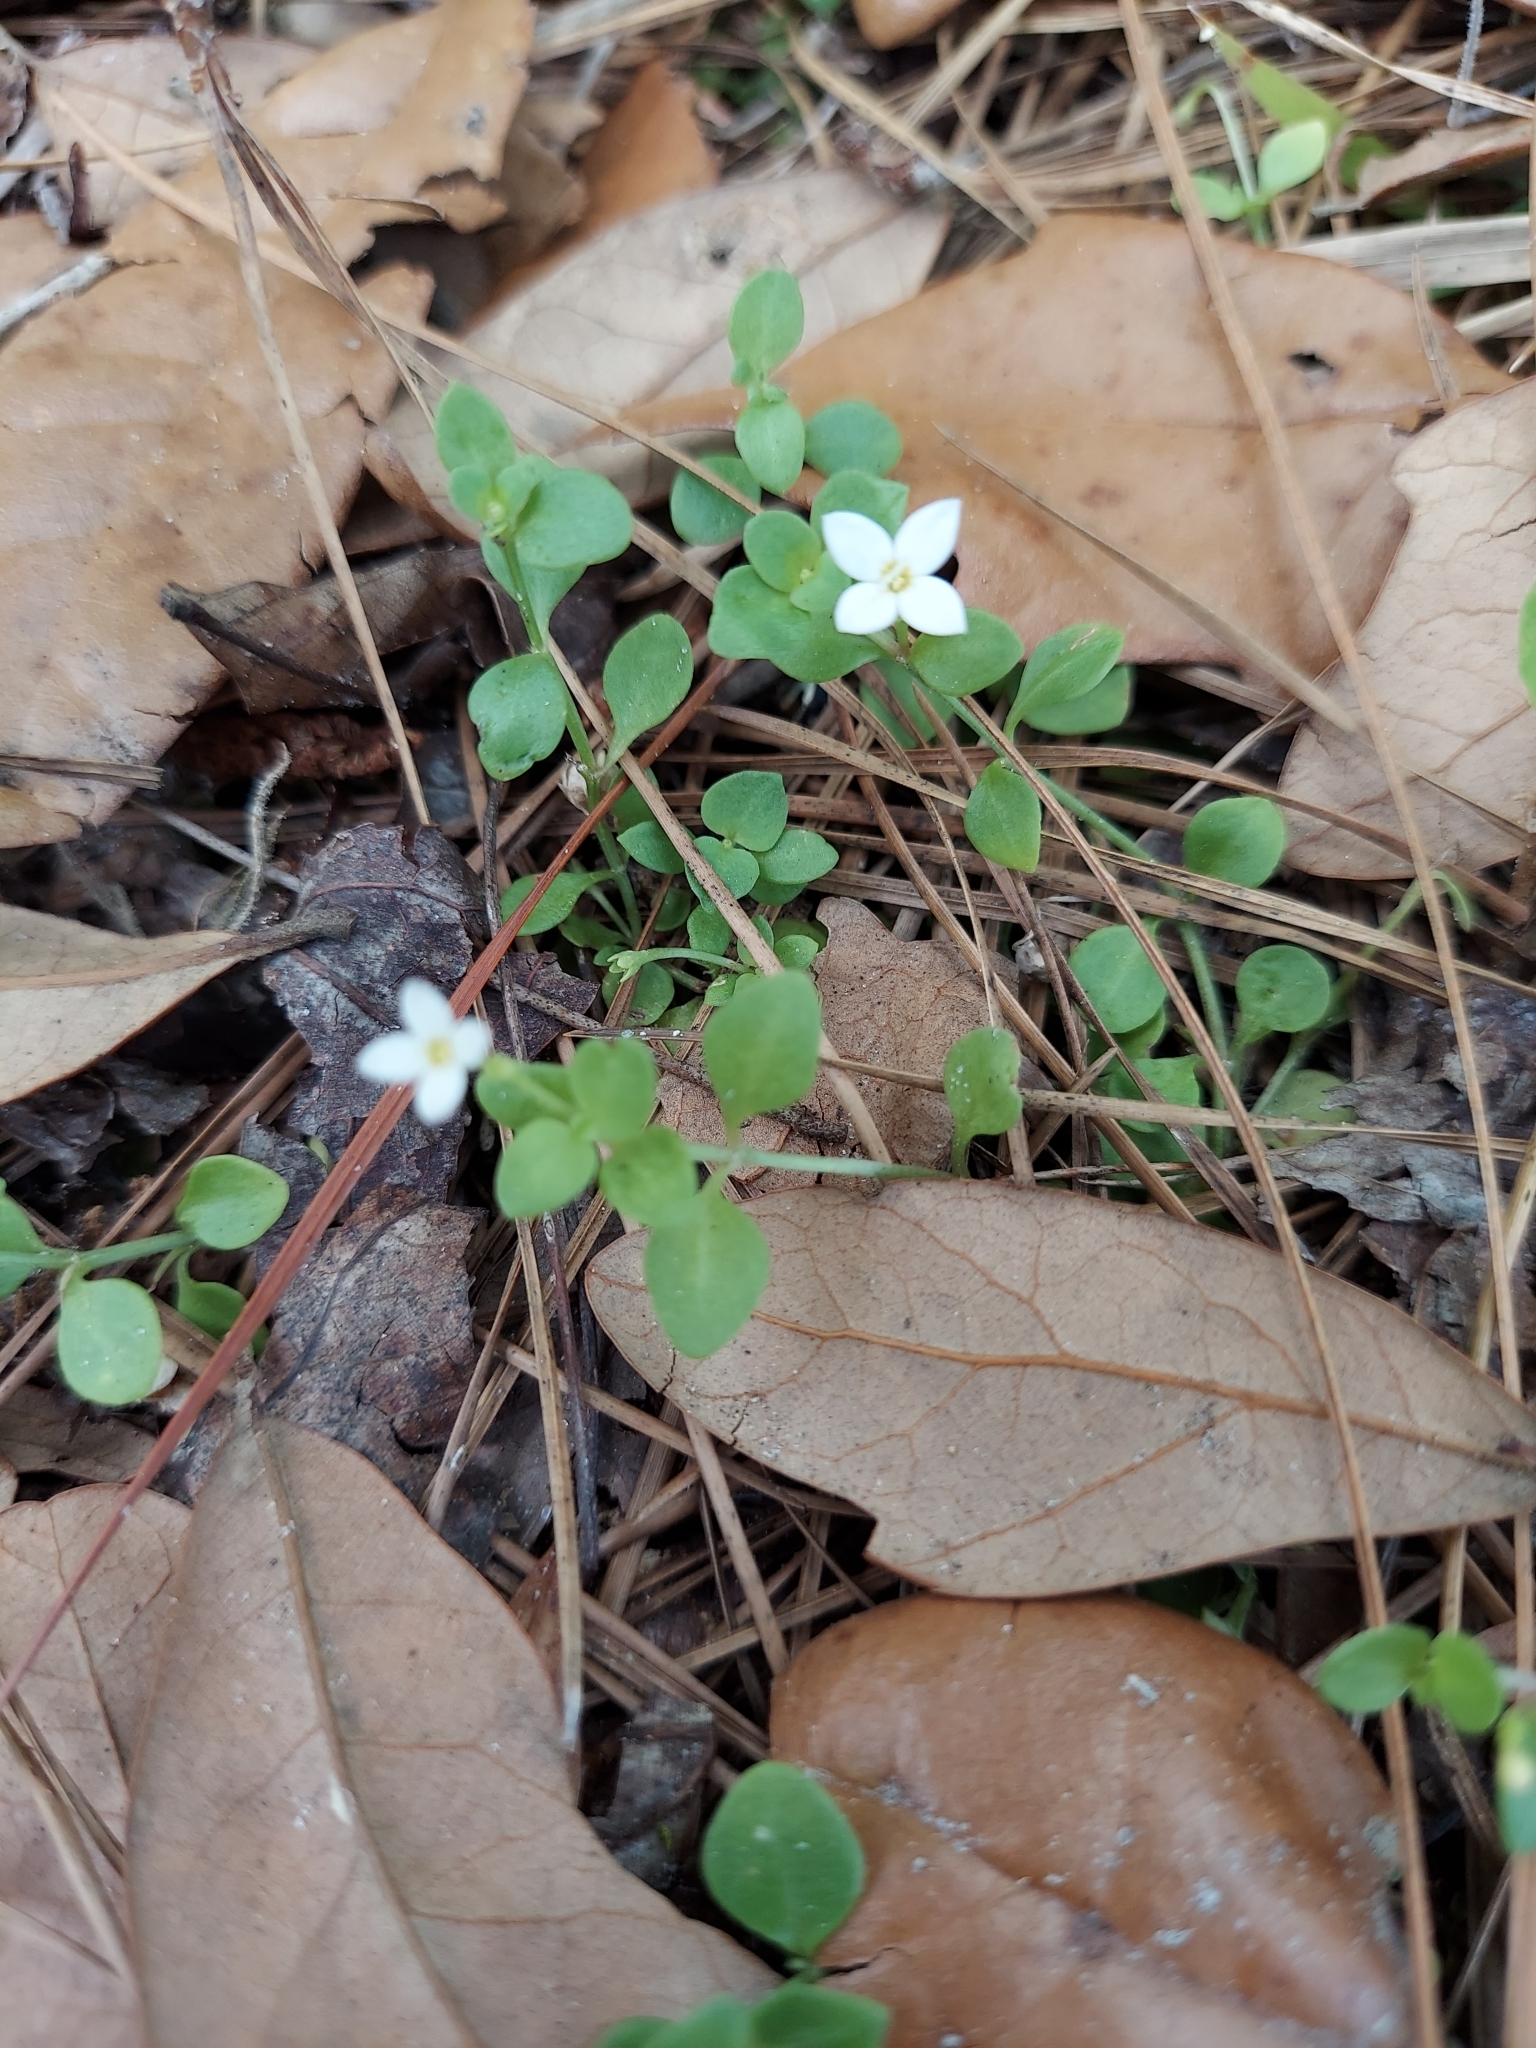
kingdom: Plantae
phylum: Tracheophyta
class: Magnoliopsida
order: Gentianales
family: Rubiaceae
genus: Houstonia
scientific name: Houstonia procumbens
